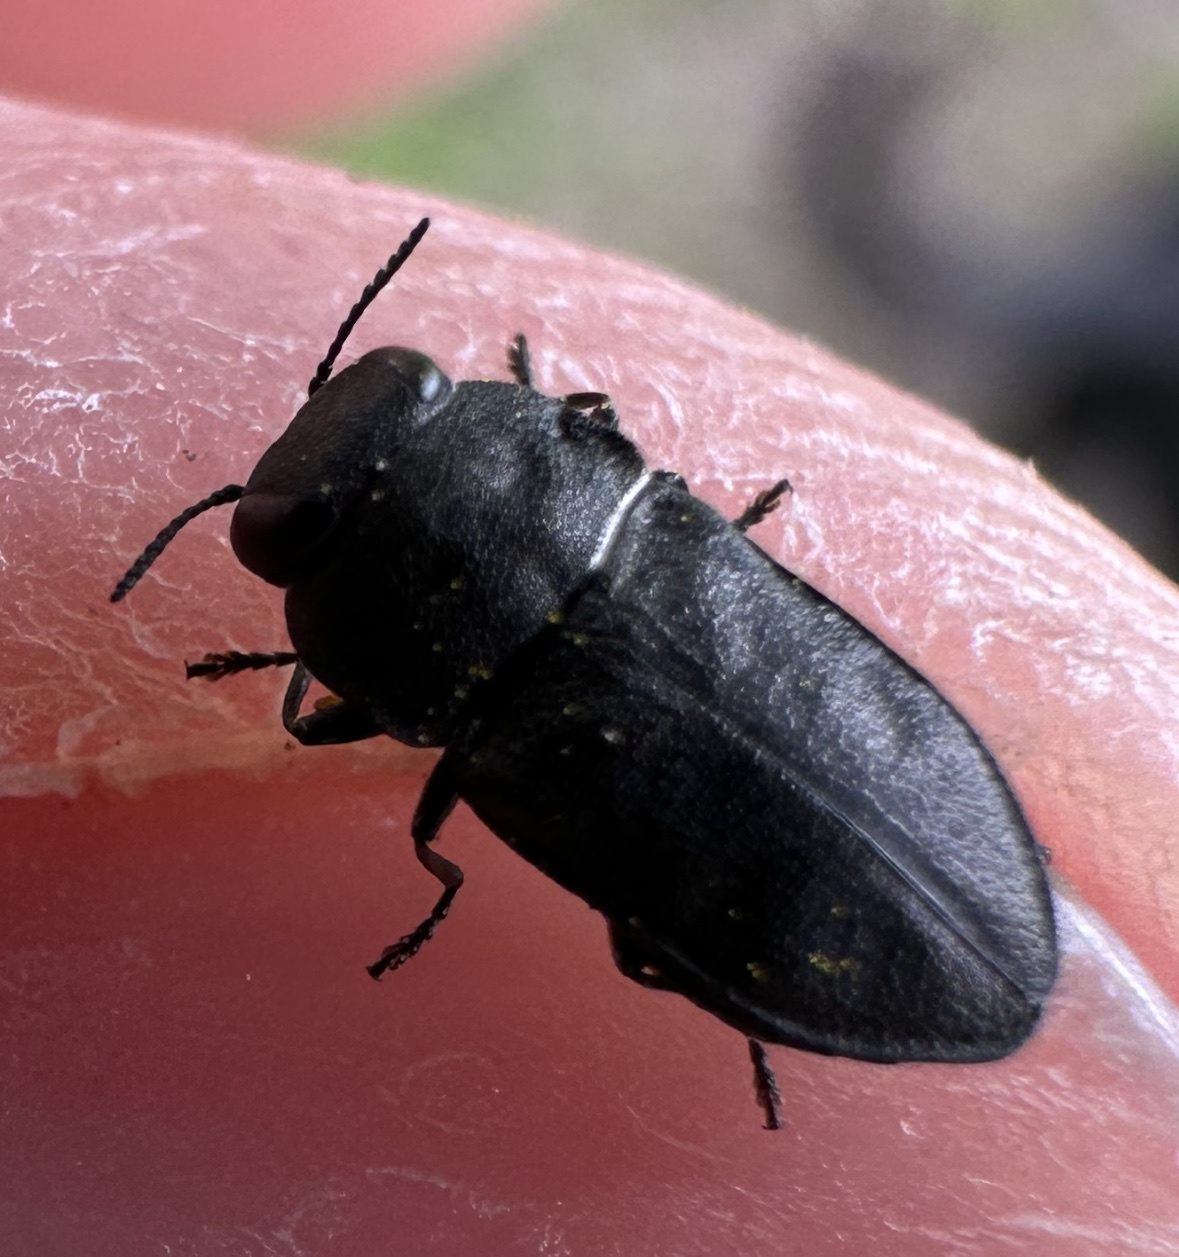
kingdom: Animalia
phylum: Arthropoda
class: Insecta
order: Coleoptera
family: Buprestidae
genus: Anthaxia
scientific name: Anthaxia quadripunctata
